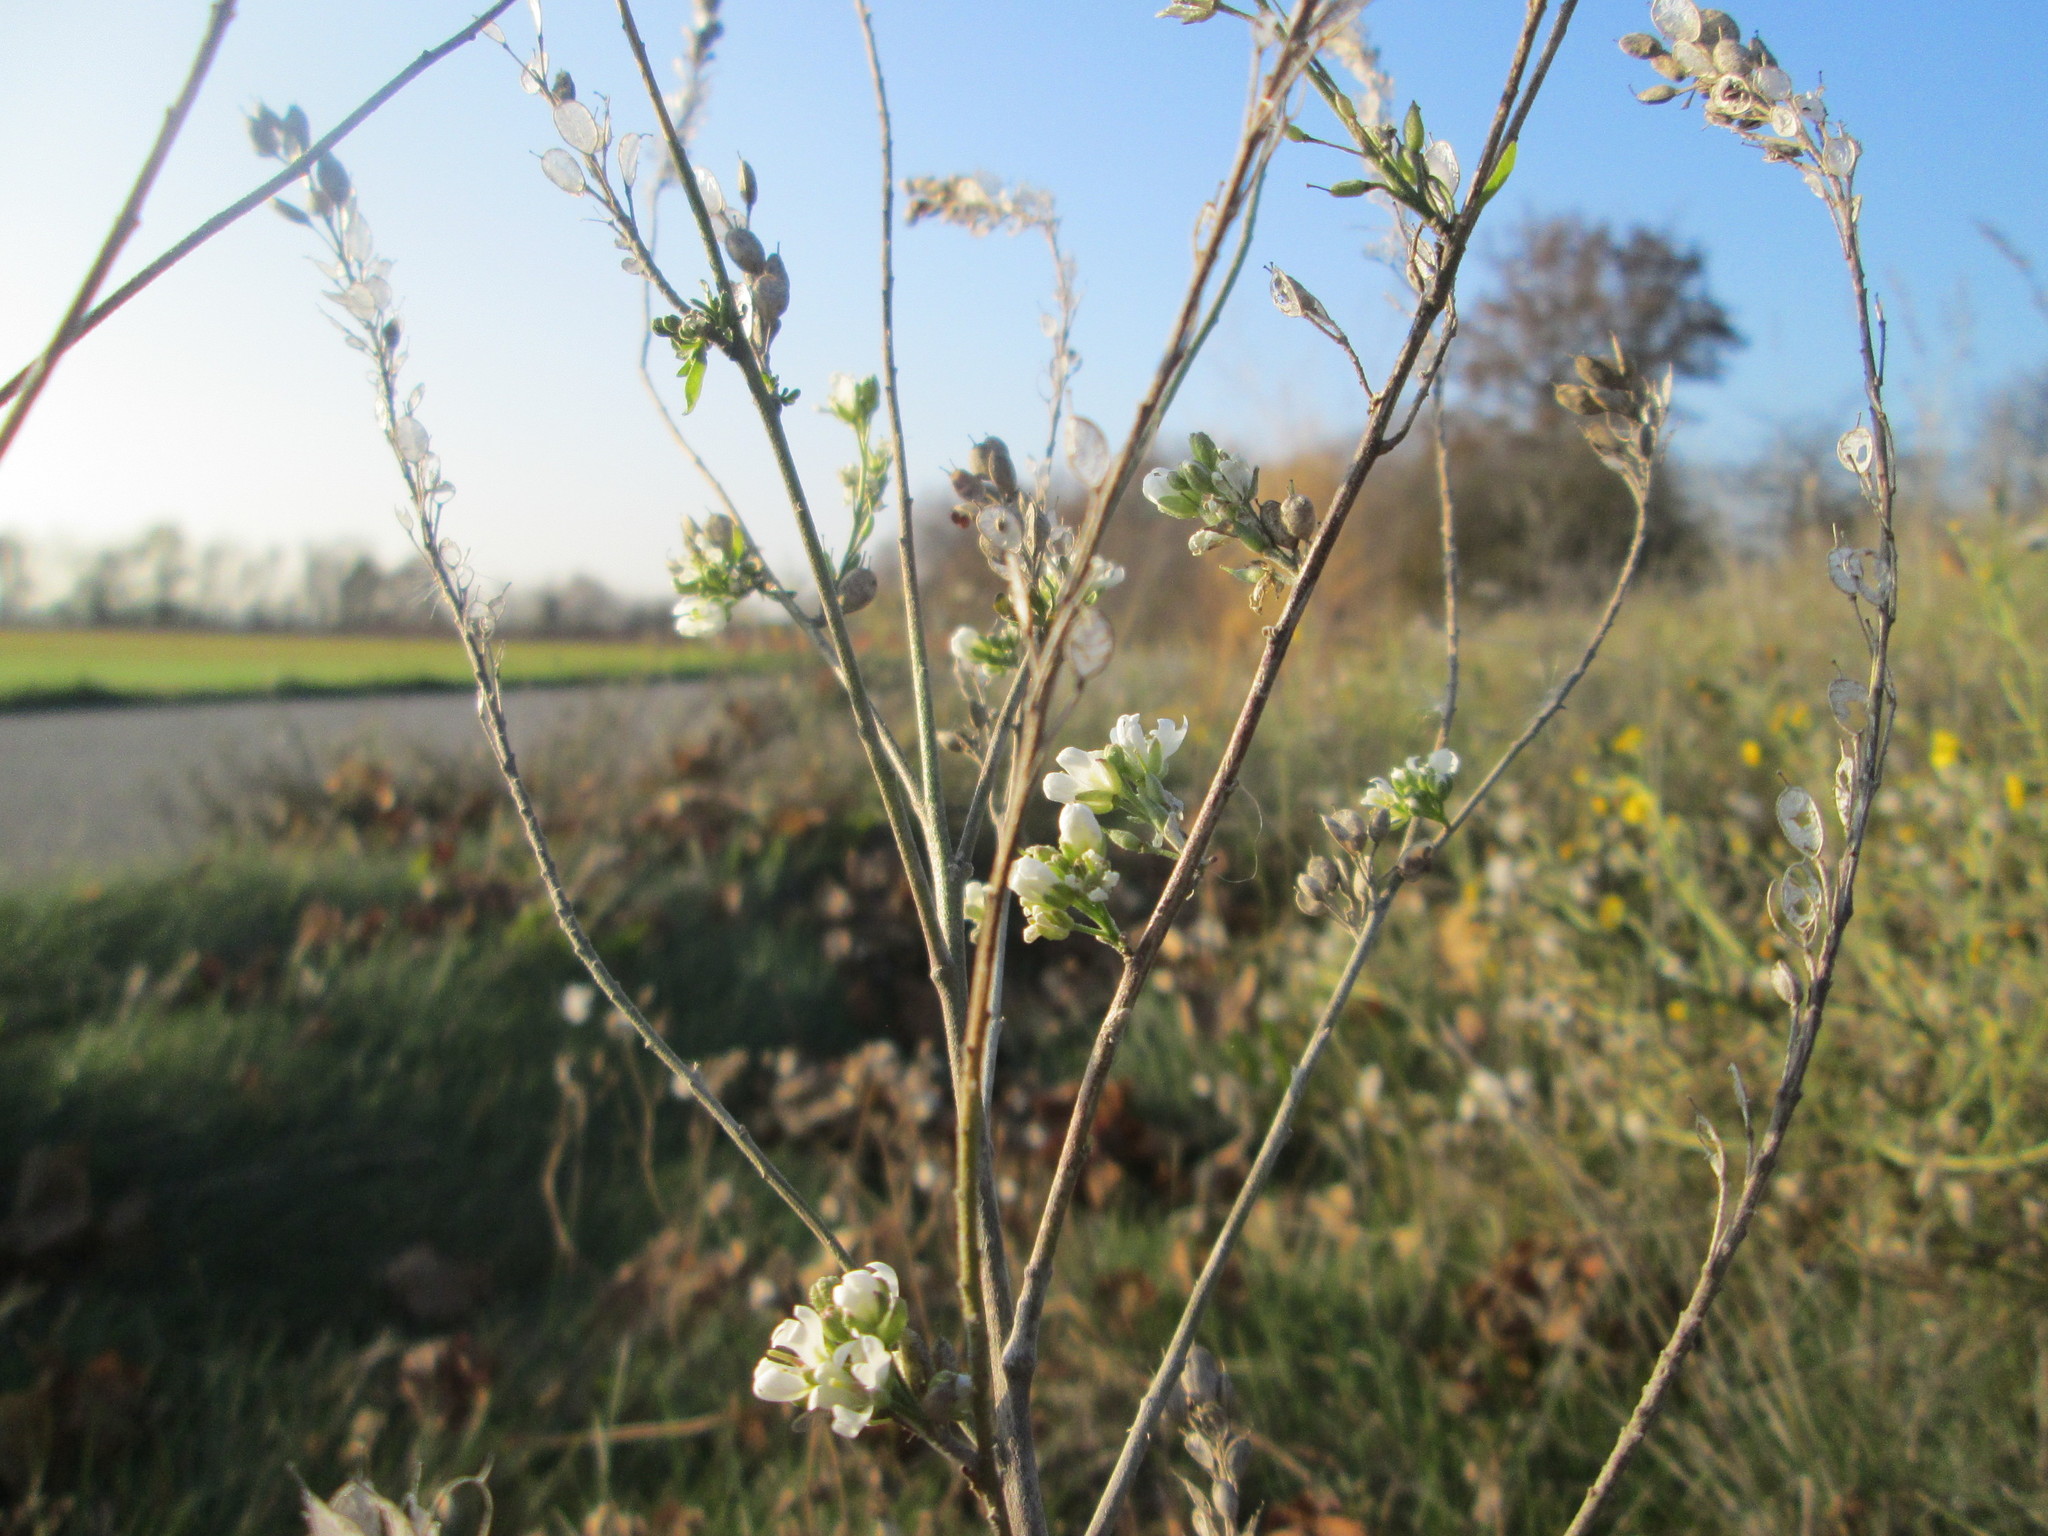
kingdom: Plantae
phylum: Tracheophyta
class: Magnoliopsida
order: Brassicales
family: Brassicaceae
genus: Berteroa
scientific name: Berteroa incana
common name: Hoary alison
